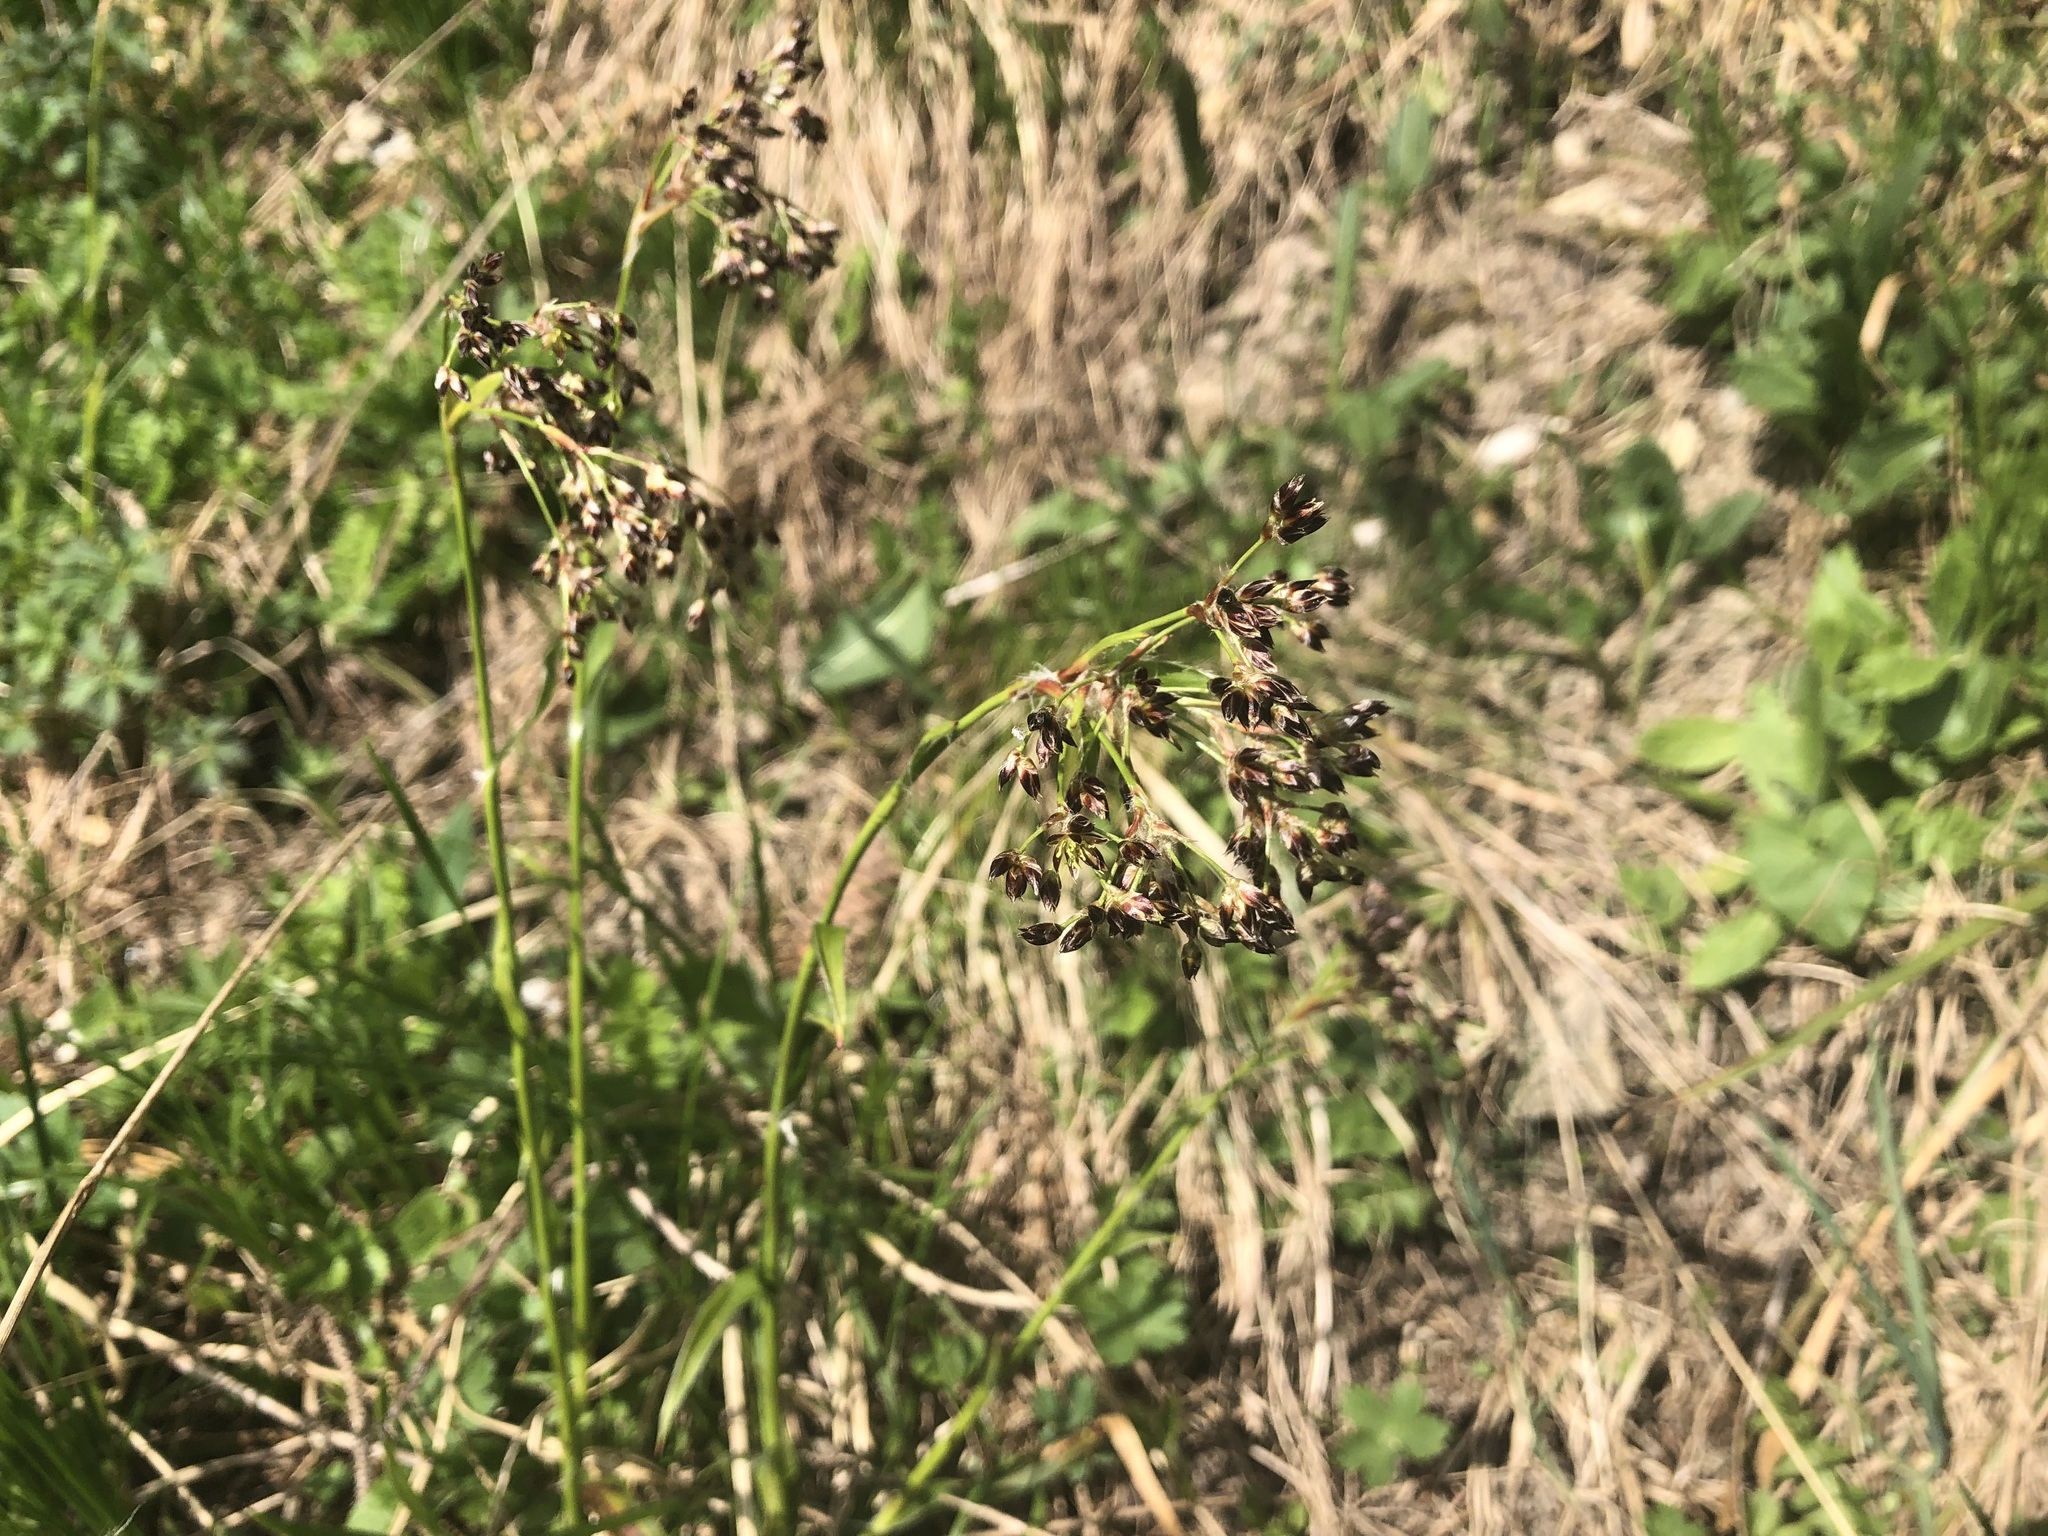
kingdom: Plantae
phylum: Tracheophyta
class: Liliopsida
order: Poales
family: Juncaceae
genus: Luzula
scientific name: Luzula sylvatica
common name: Great wood-rush
